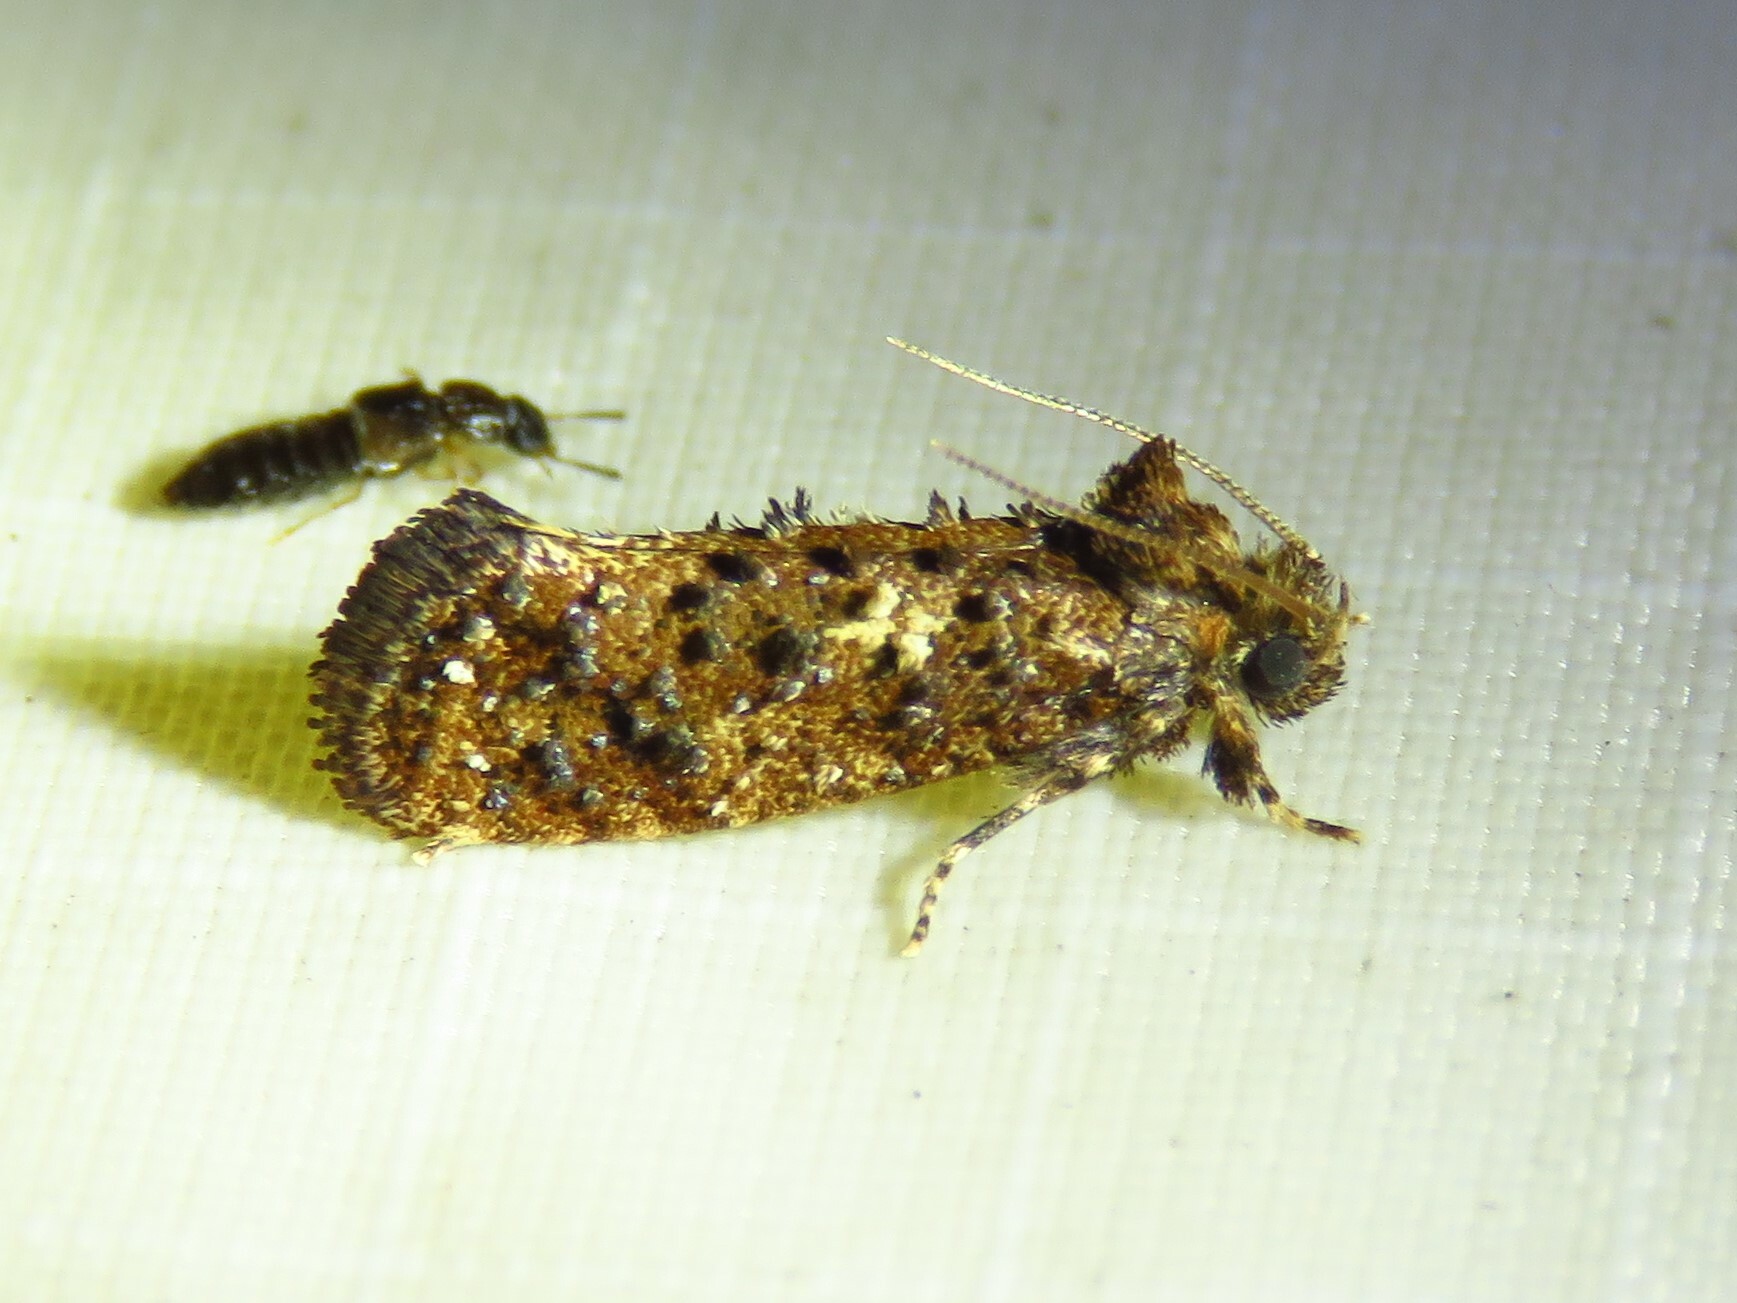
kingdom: Animalia
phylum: Arthropoda
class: Insecta
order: Lepidoptera
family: Tineidae
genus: Acrolophus
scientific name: Acrolophus cressoni
